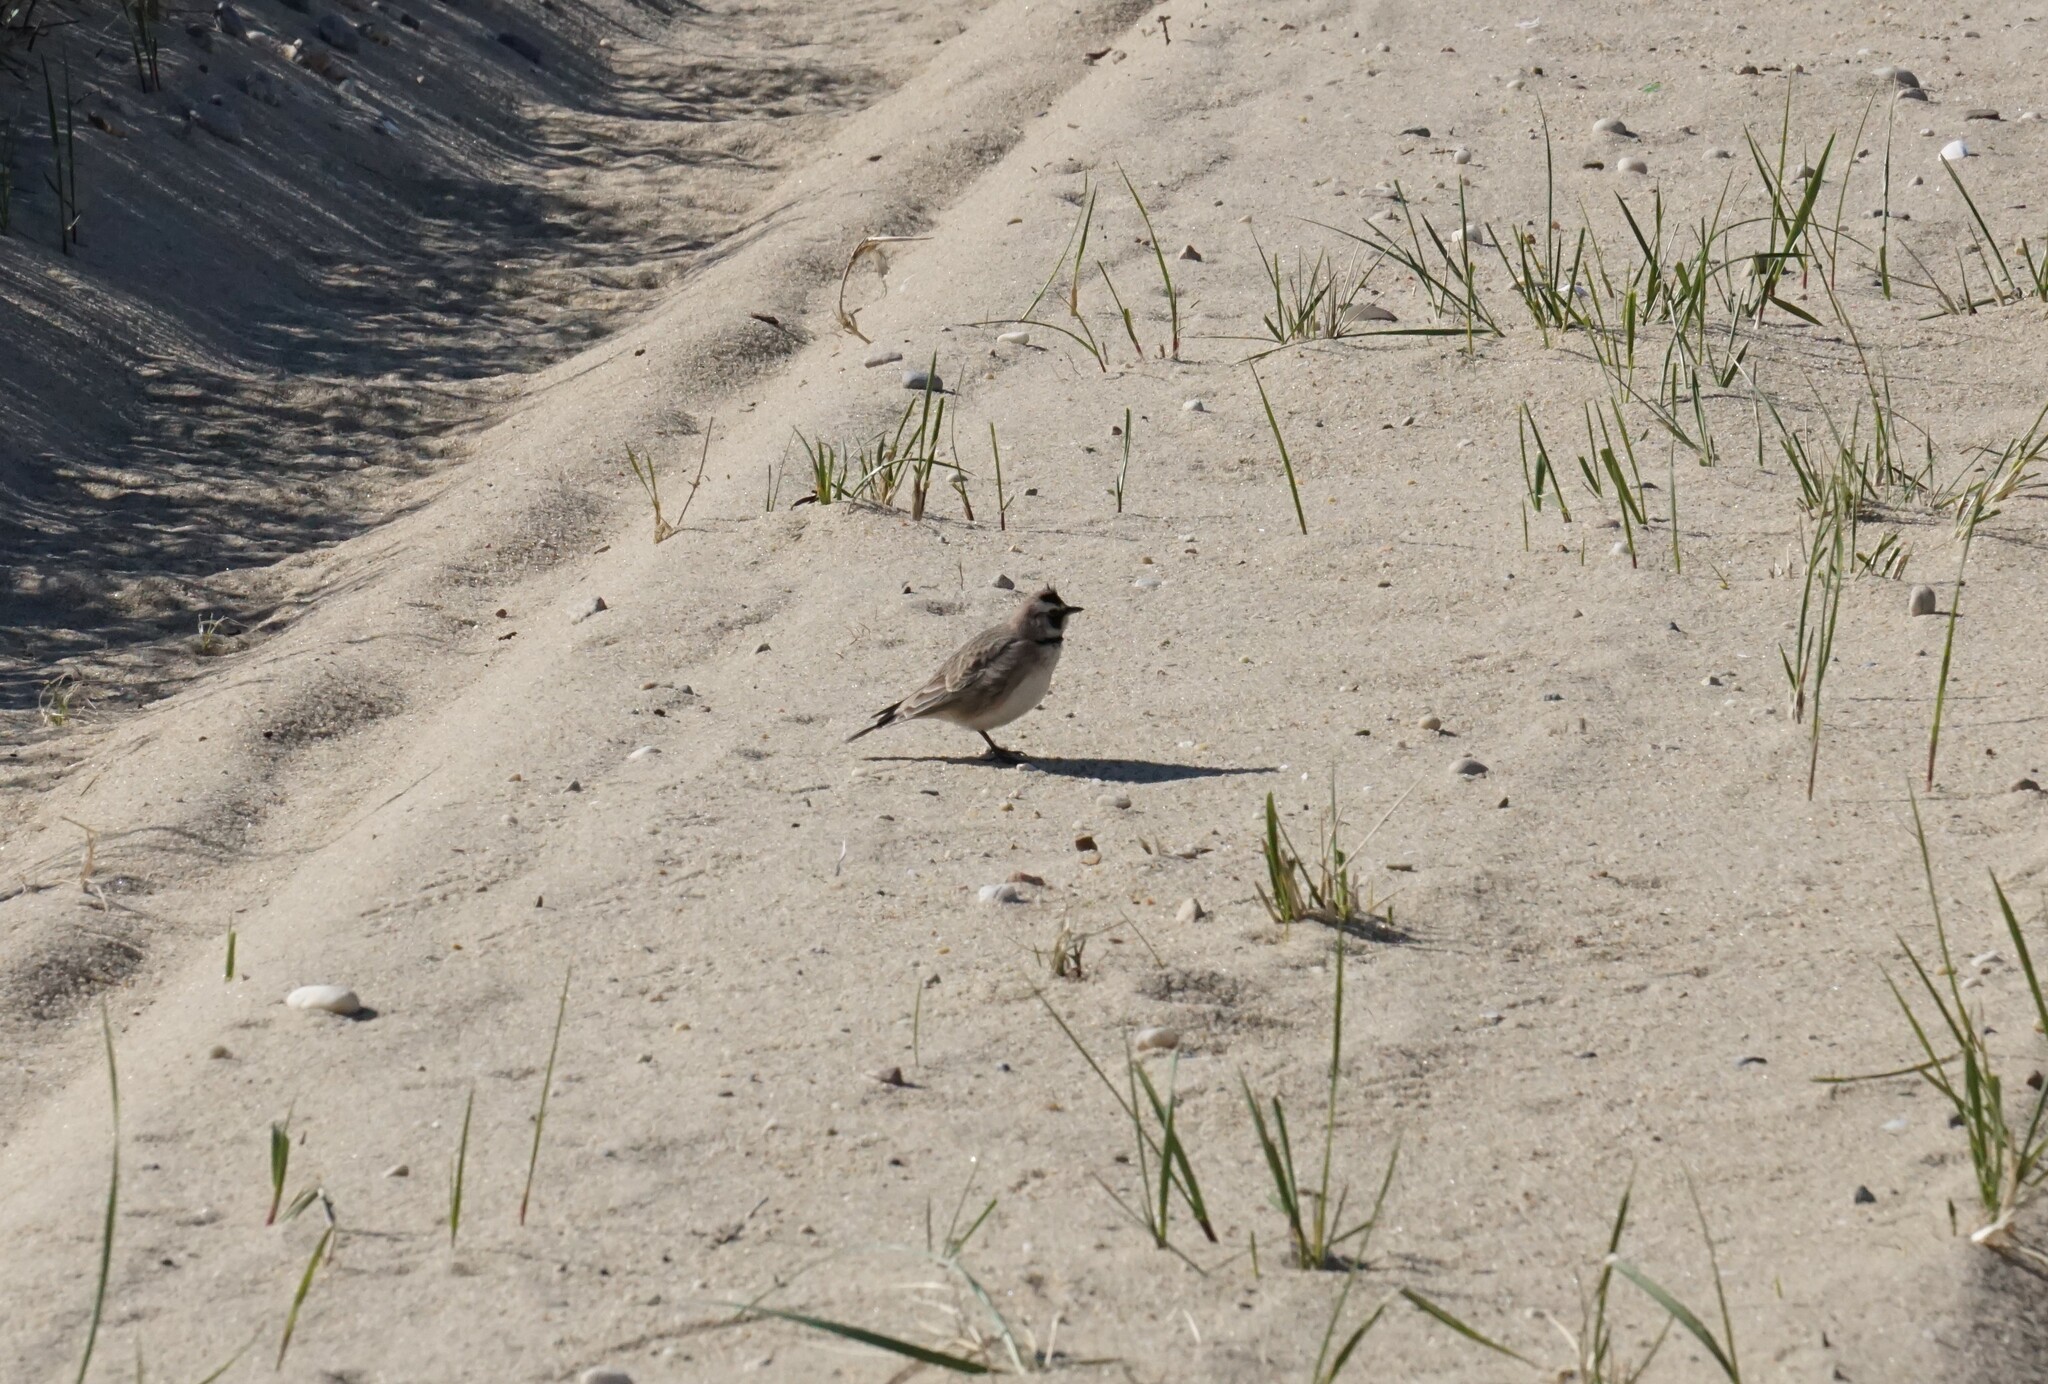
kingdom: Animalia
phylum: Chordata
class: Aves
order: Passeriformes
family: Alaudidae
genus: Eremophila
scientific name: Eremophila alpestris
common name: Horned lark
